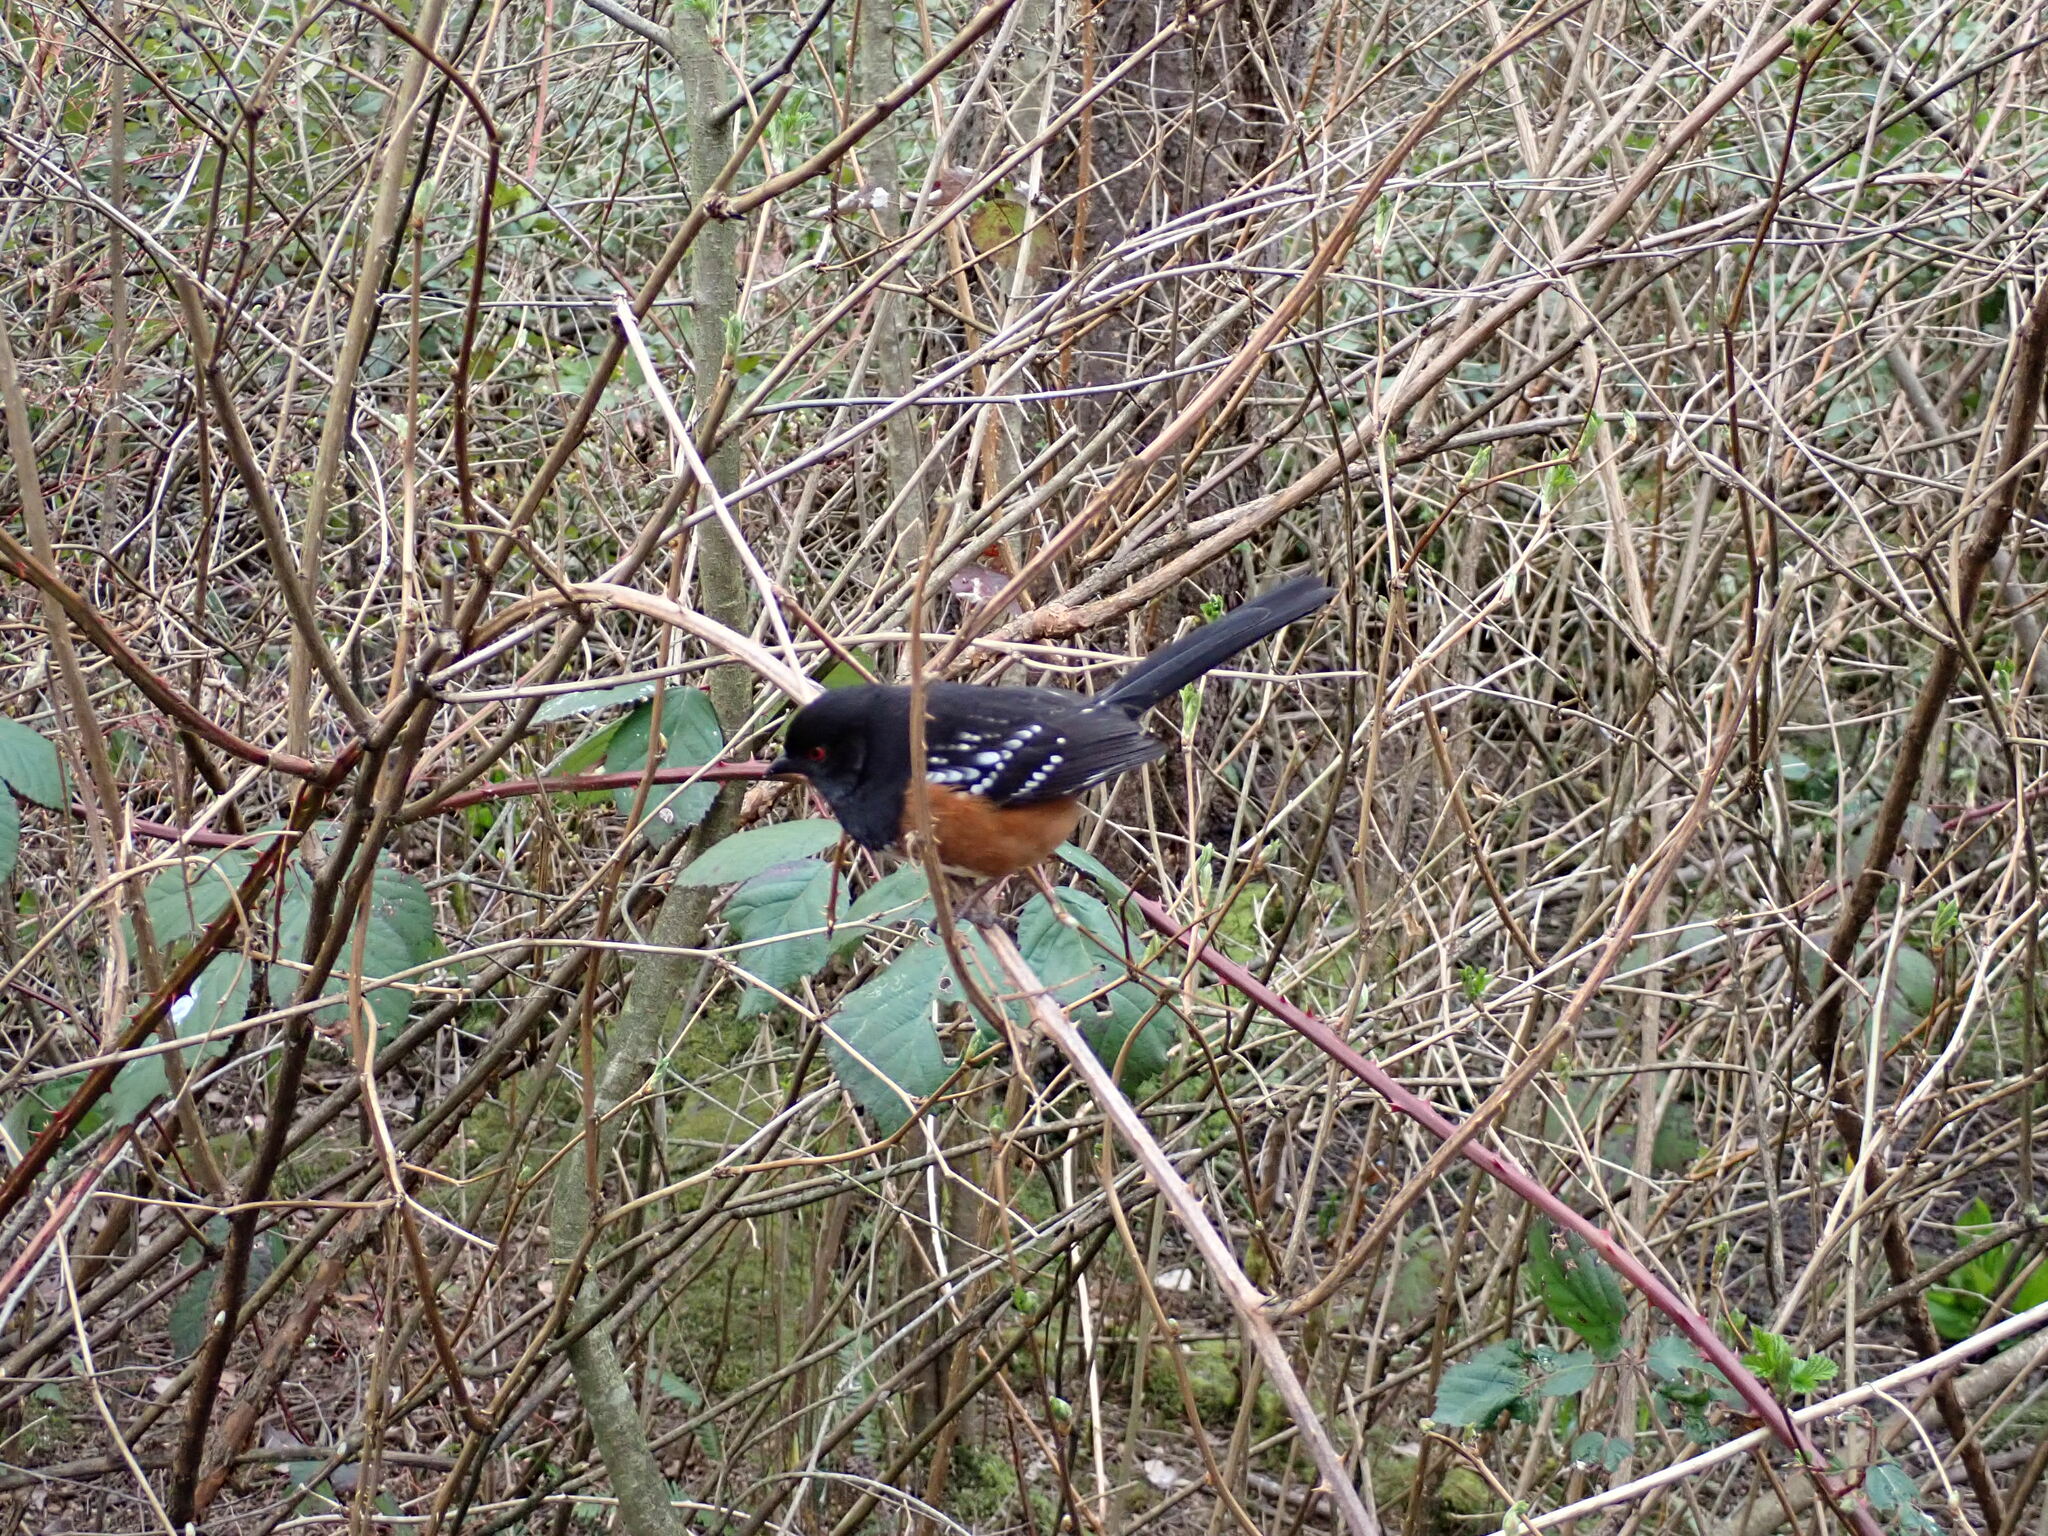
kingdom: Animalia
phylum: Chordata
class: Aves
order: Passeriformes
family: Passerellidae
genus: Pipilo
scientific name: Pipilo maculatus
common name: Spotted towhee
